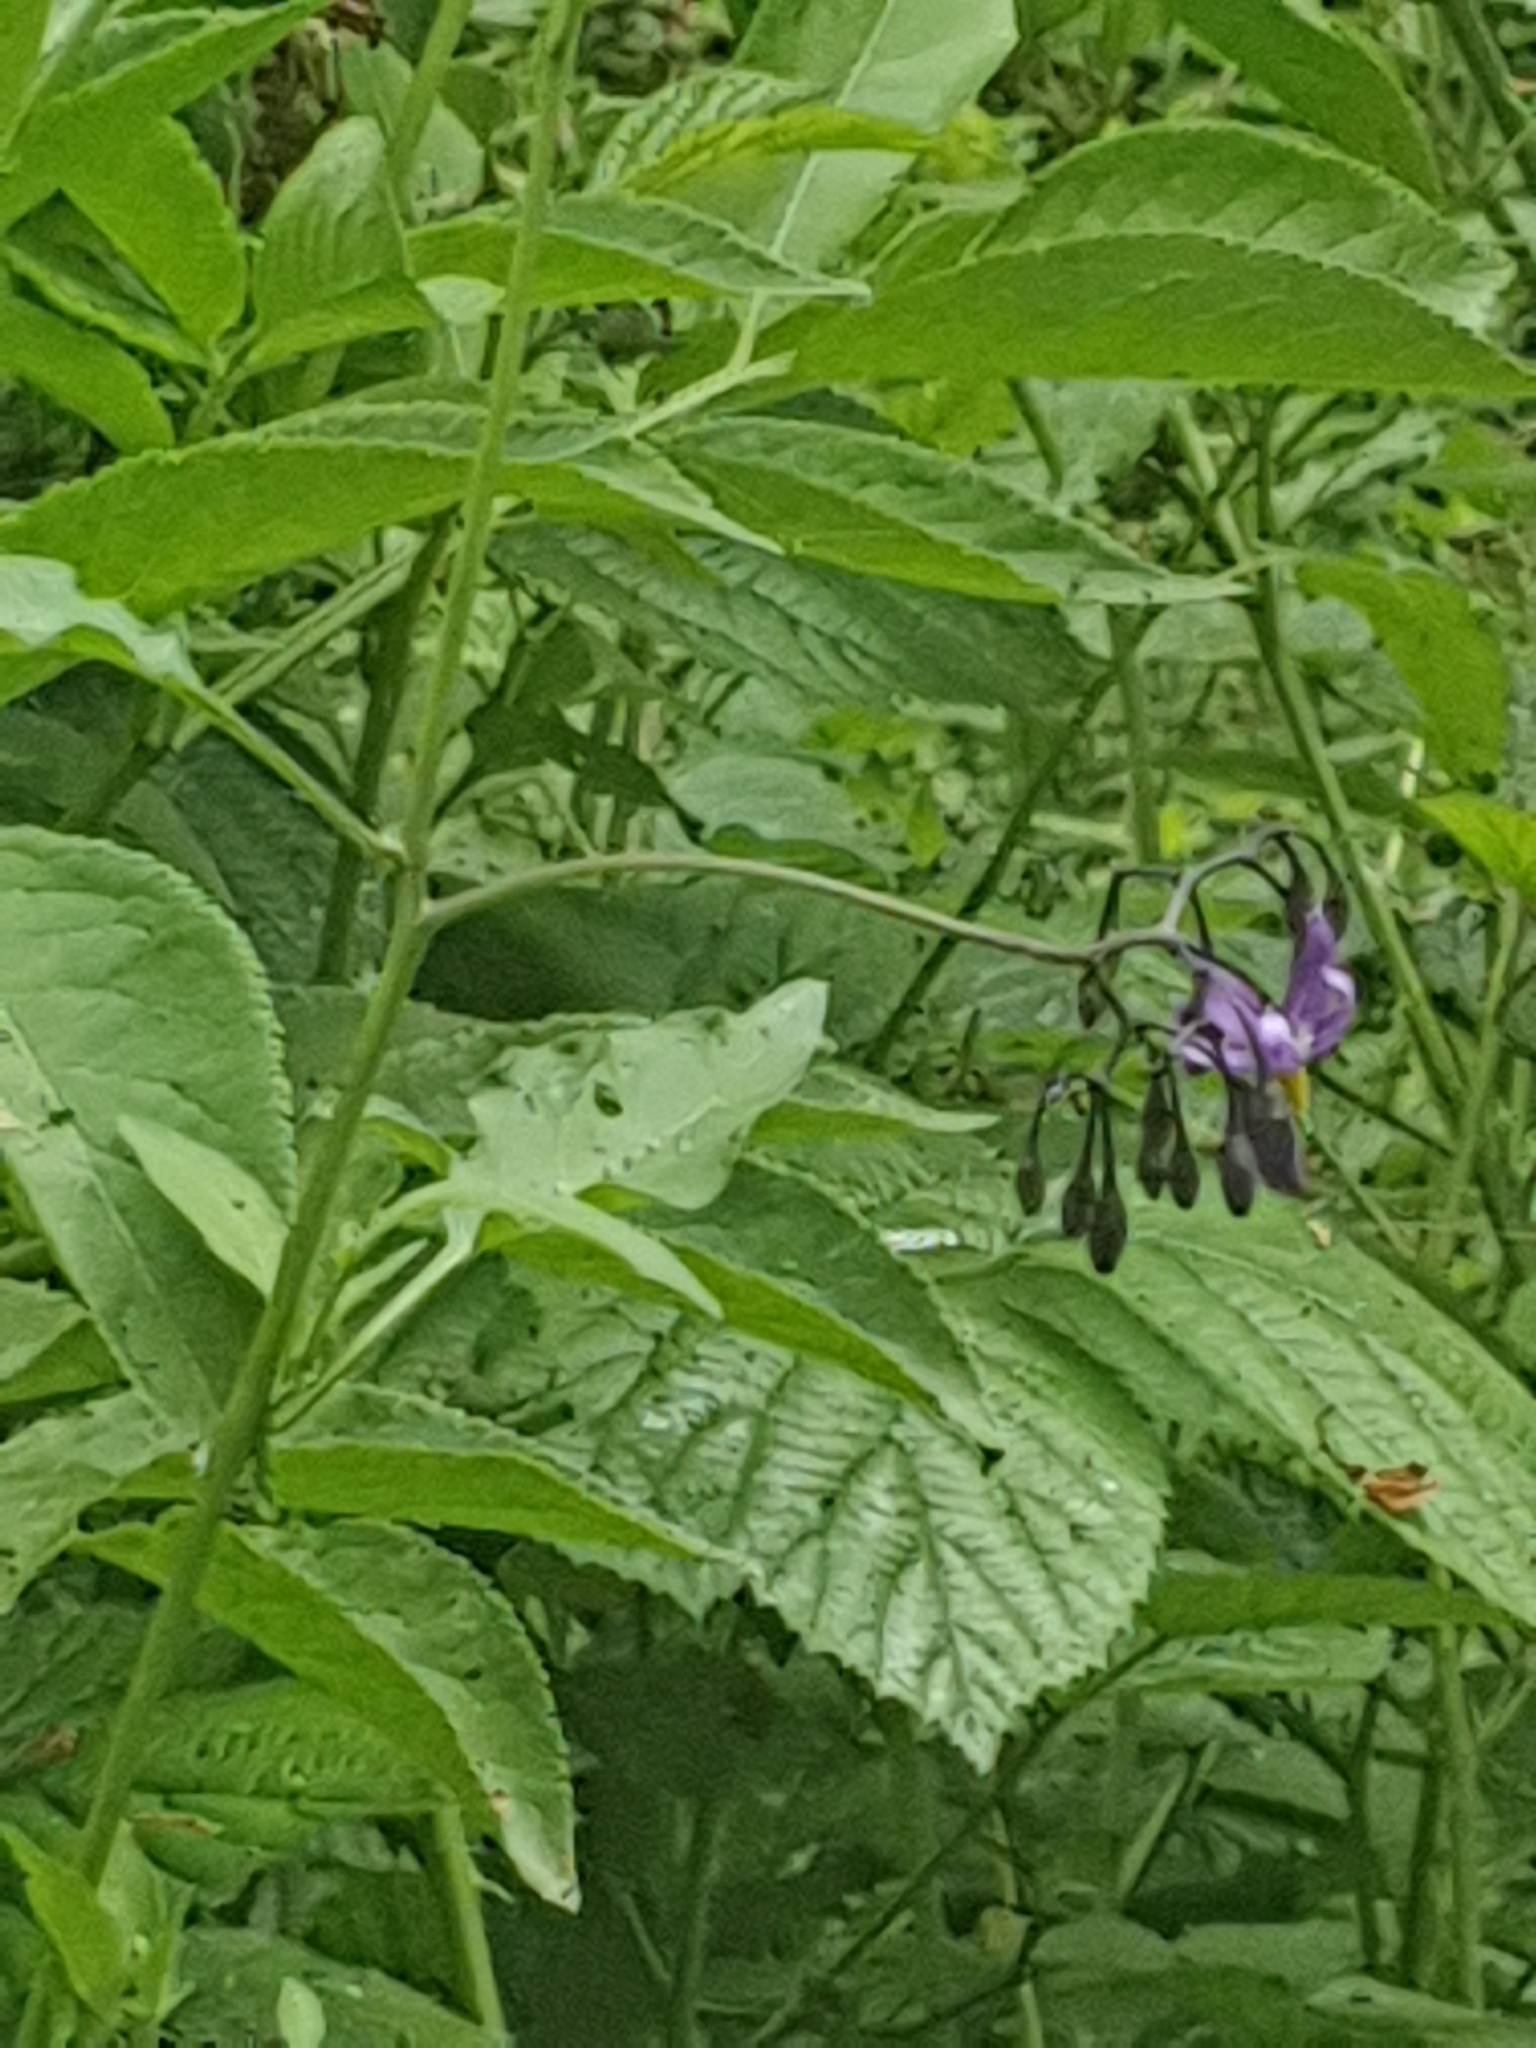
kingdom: Plantae
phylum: Tracheophyta
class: Magnoliopsida
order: Solanales
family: Solanaceae
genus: Solanum
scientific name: Solanum dulcamara
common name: Climbing nightshade
